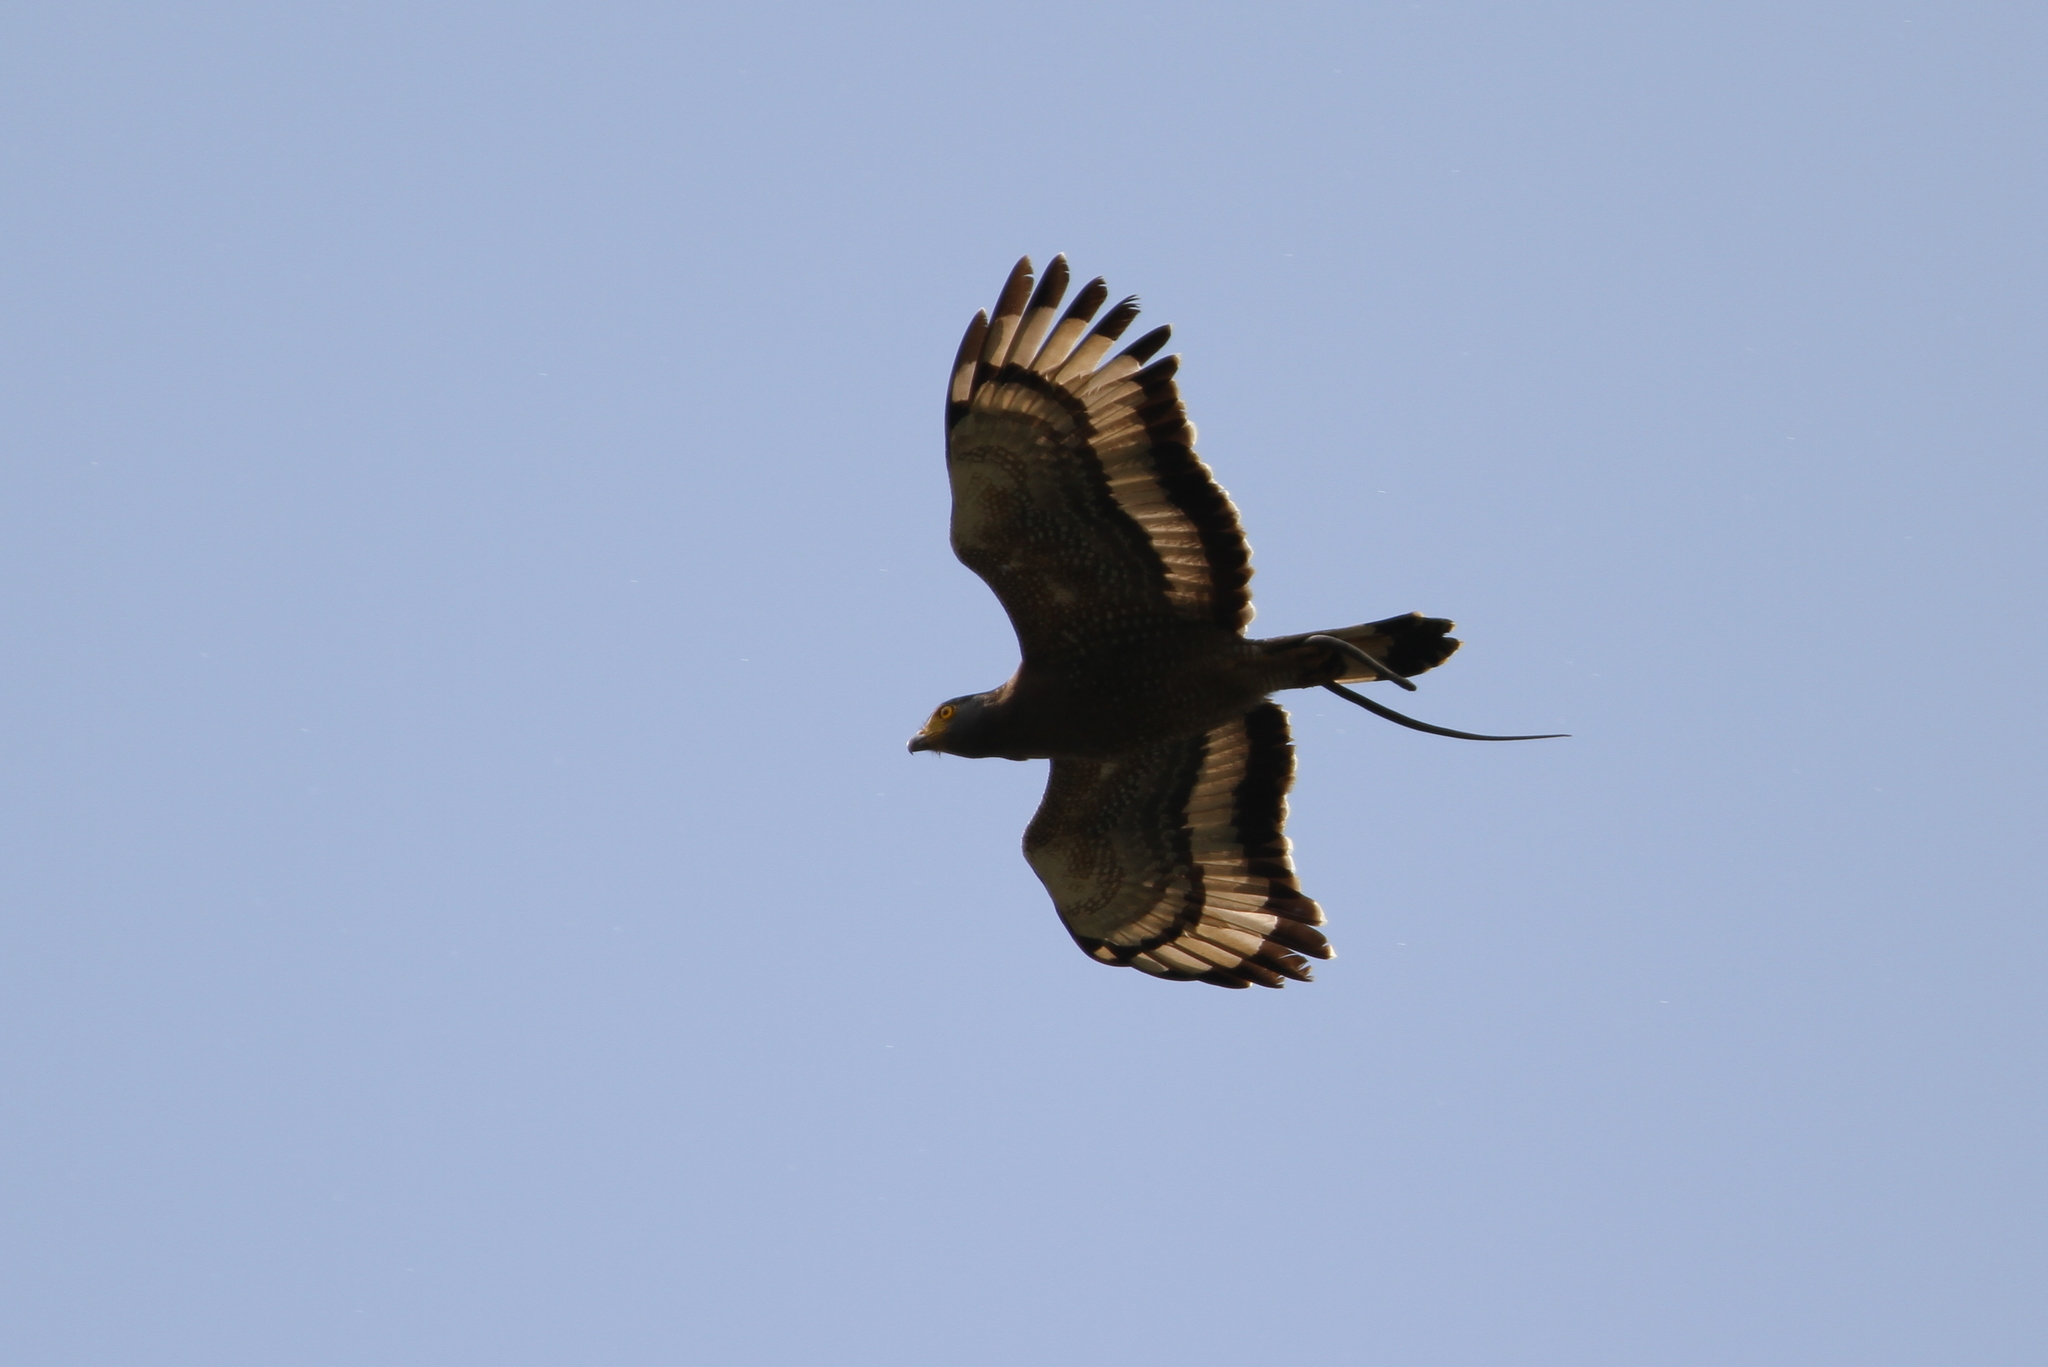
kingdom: Animalia
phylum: Chordata
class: Aves
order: Accipitriformes
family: Accipitridae
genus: Spilornis
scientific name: Spilornis cheela
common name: Crested serpent eagle
